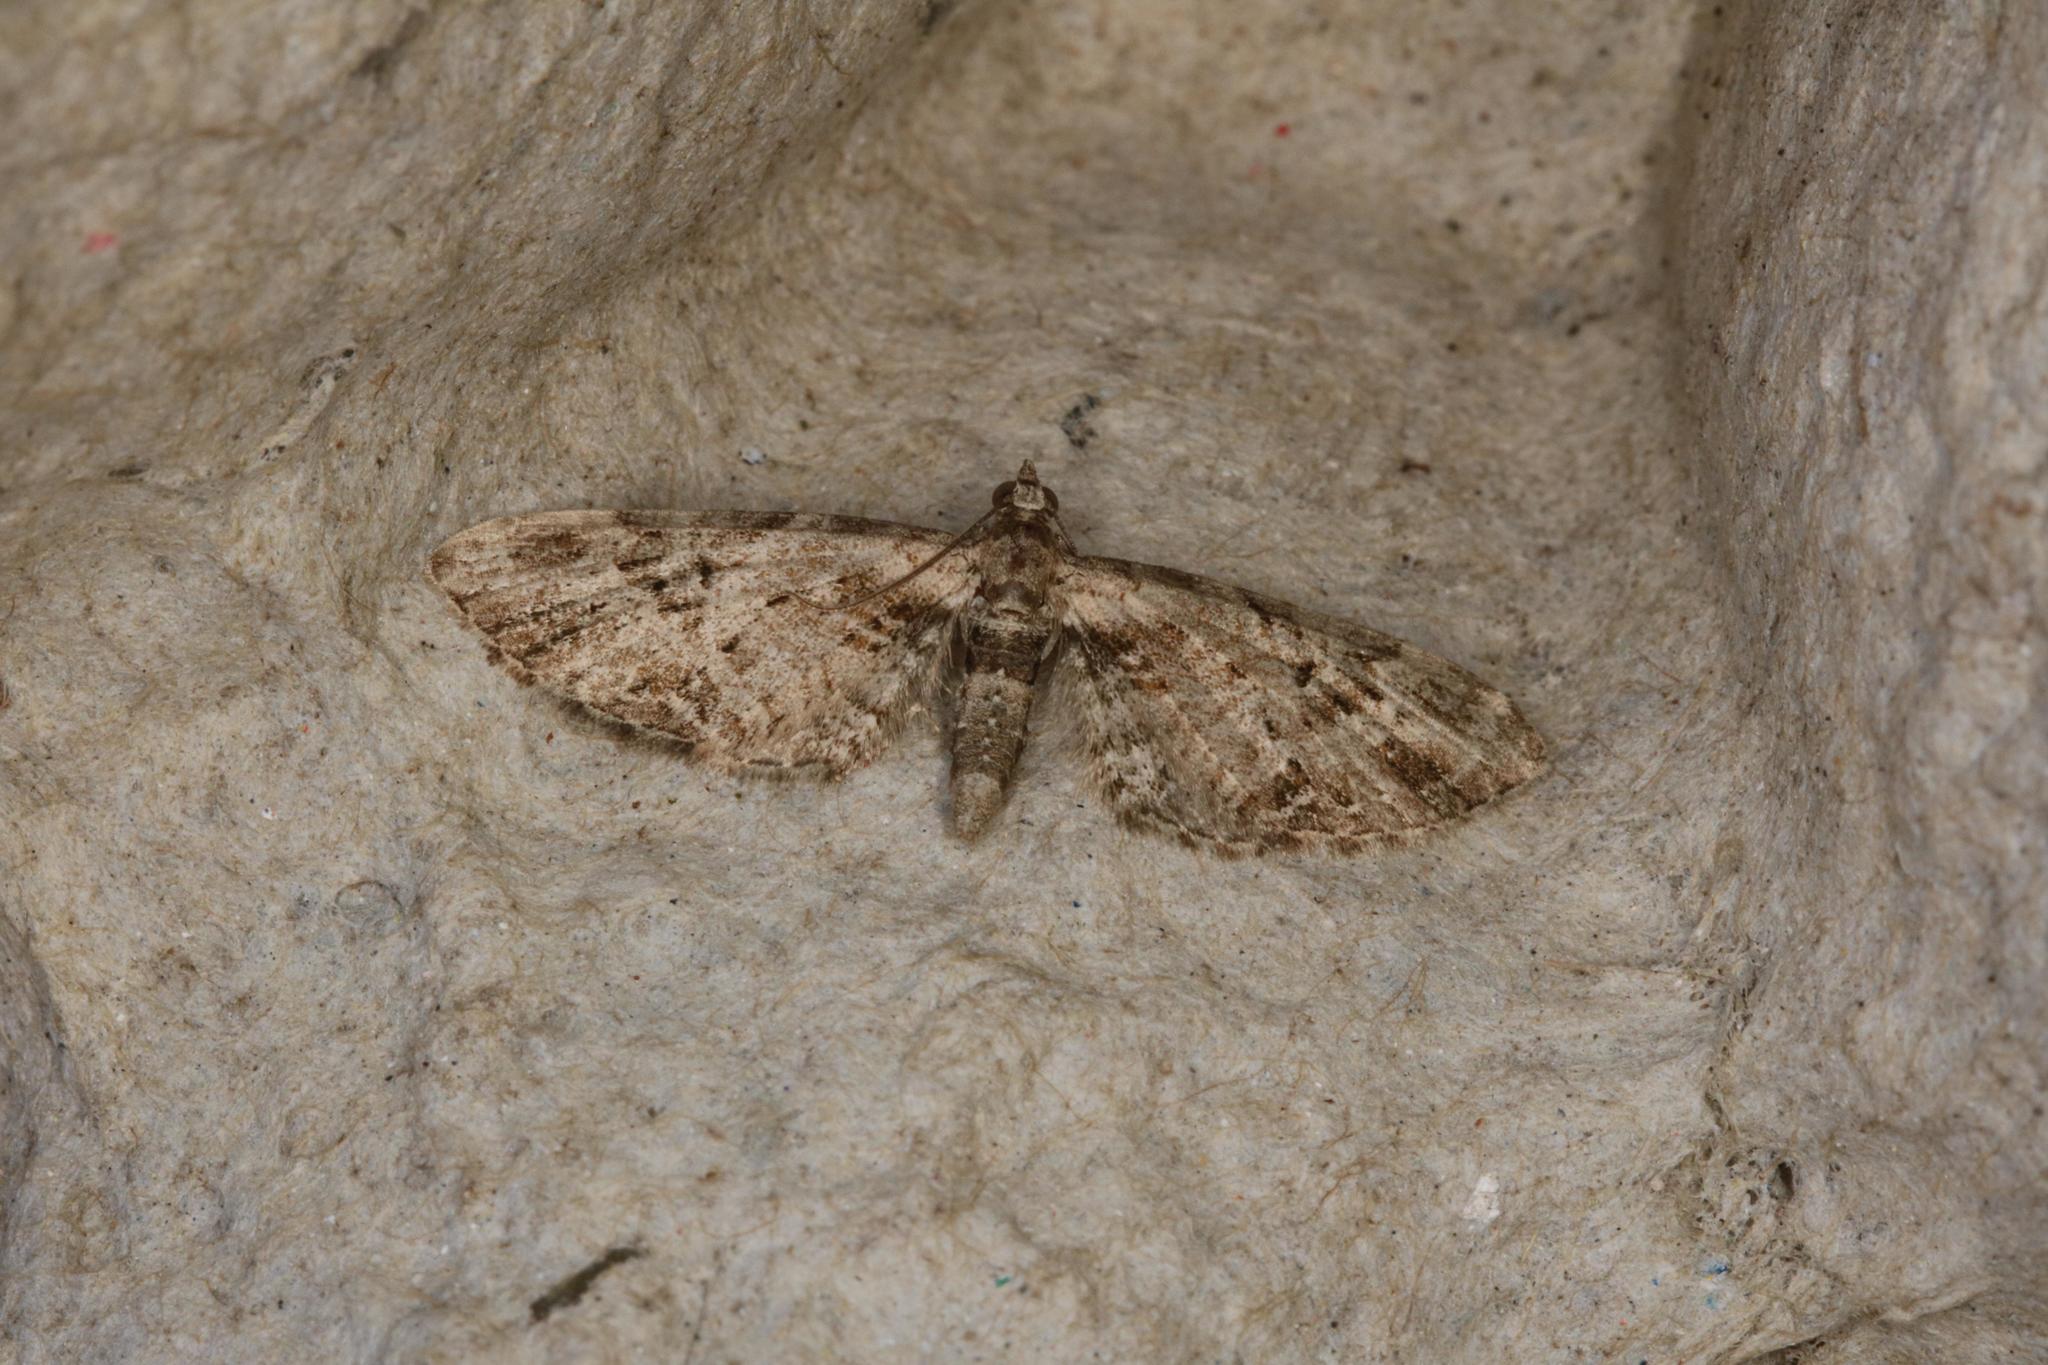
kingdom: Animalia
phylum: Arthropoda
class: Insecta
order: Lepidoptera
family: Geometridae
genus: Eupithecia
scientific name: Eupithecia exiguata
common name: Mottled pug
